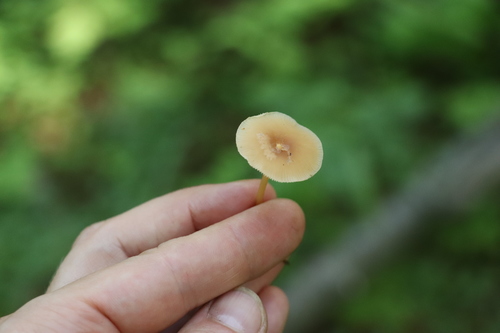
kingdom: Fungi
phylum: Basidiomycota
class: Agaricomycetes
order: Agaricales
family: Omphalotaceae
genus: Gymnopus
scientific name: Gymnopus dryophilus
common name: Penny top
